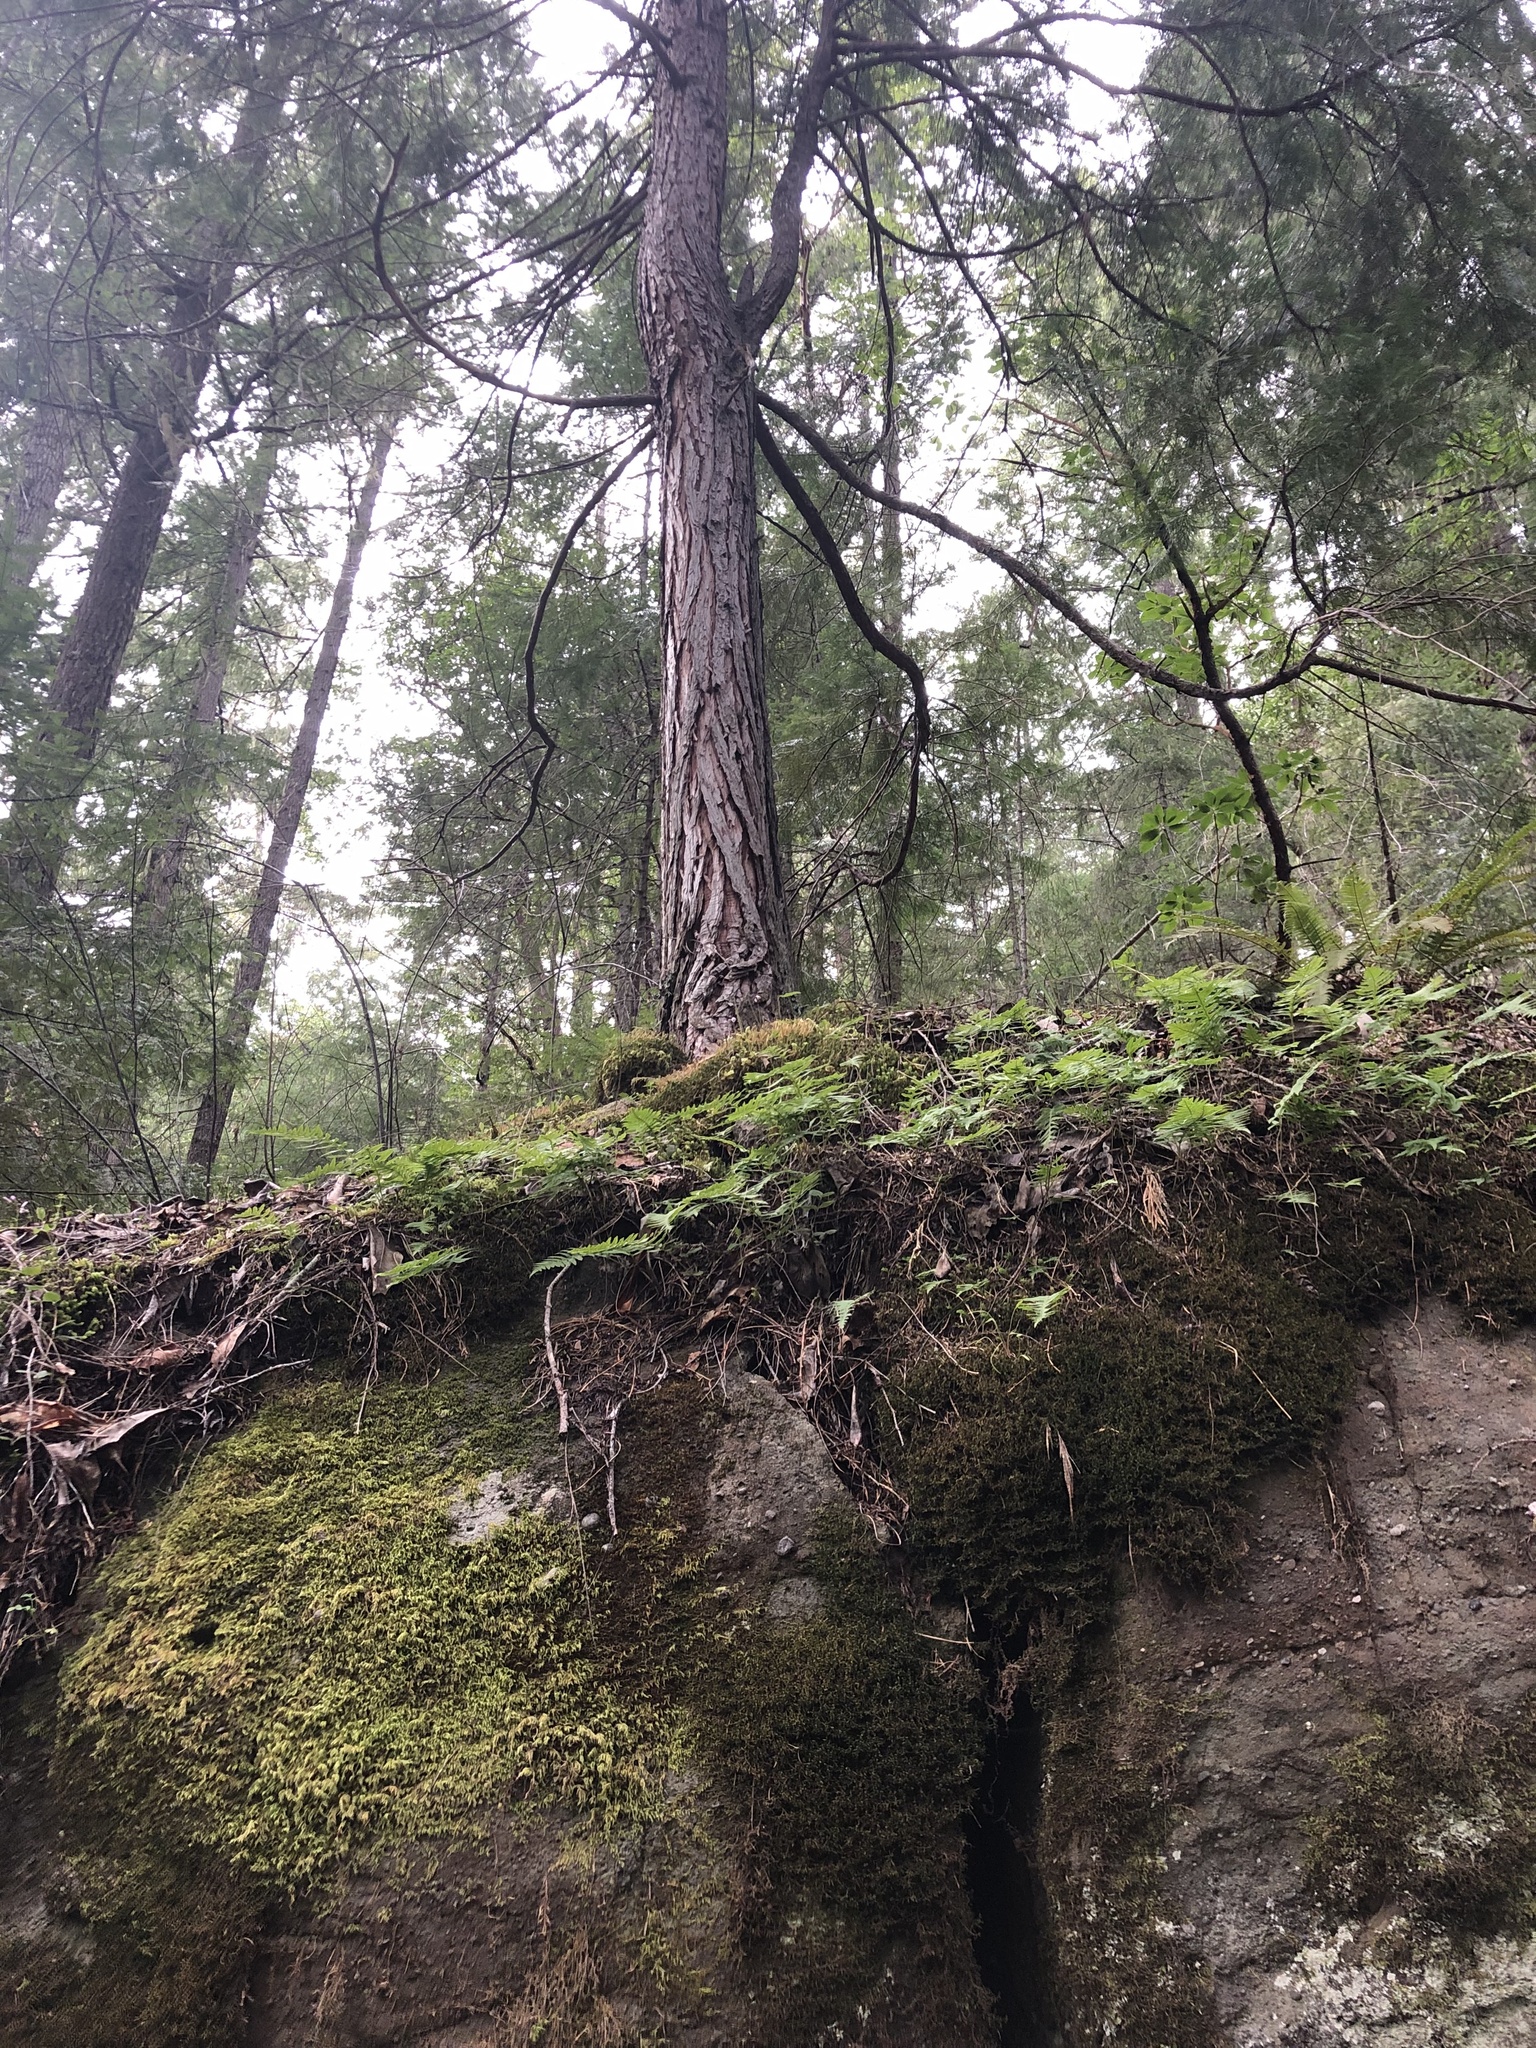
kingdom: Plantae
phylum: Tracheophyta
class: Pinopsida
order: Pinales
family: Cupressaceae
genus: Thuja
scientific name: Thuja plicata
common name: Western red-cedar
